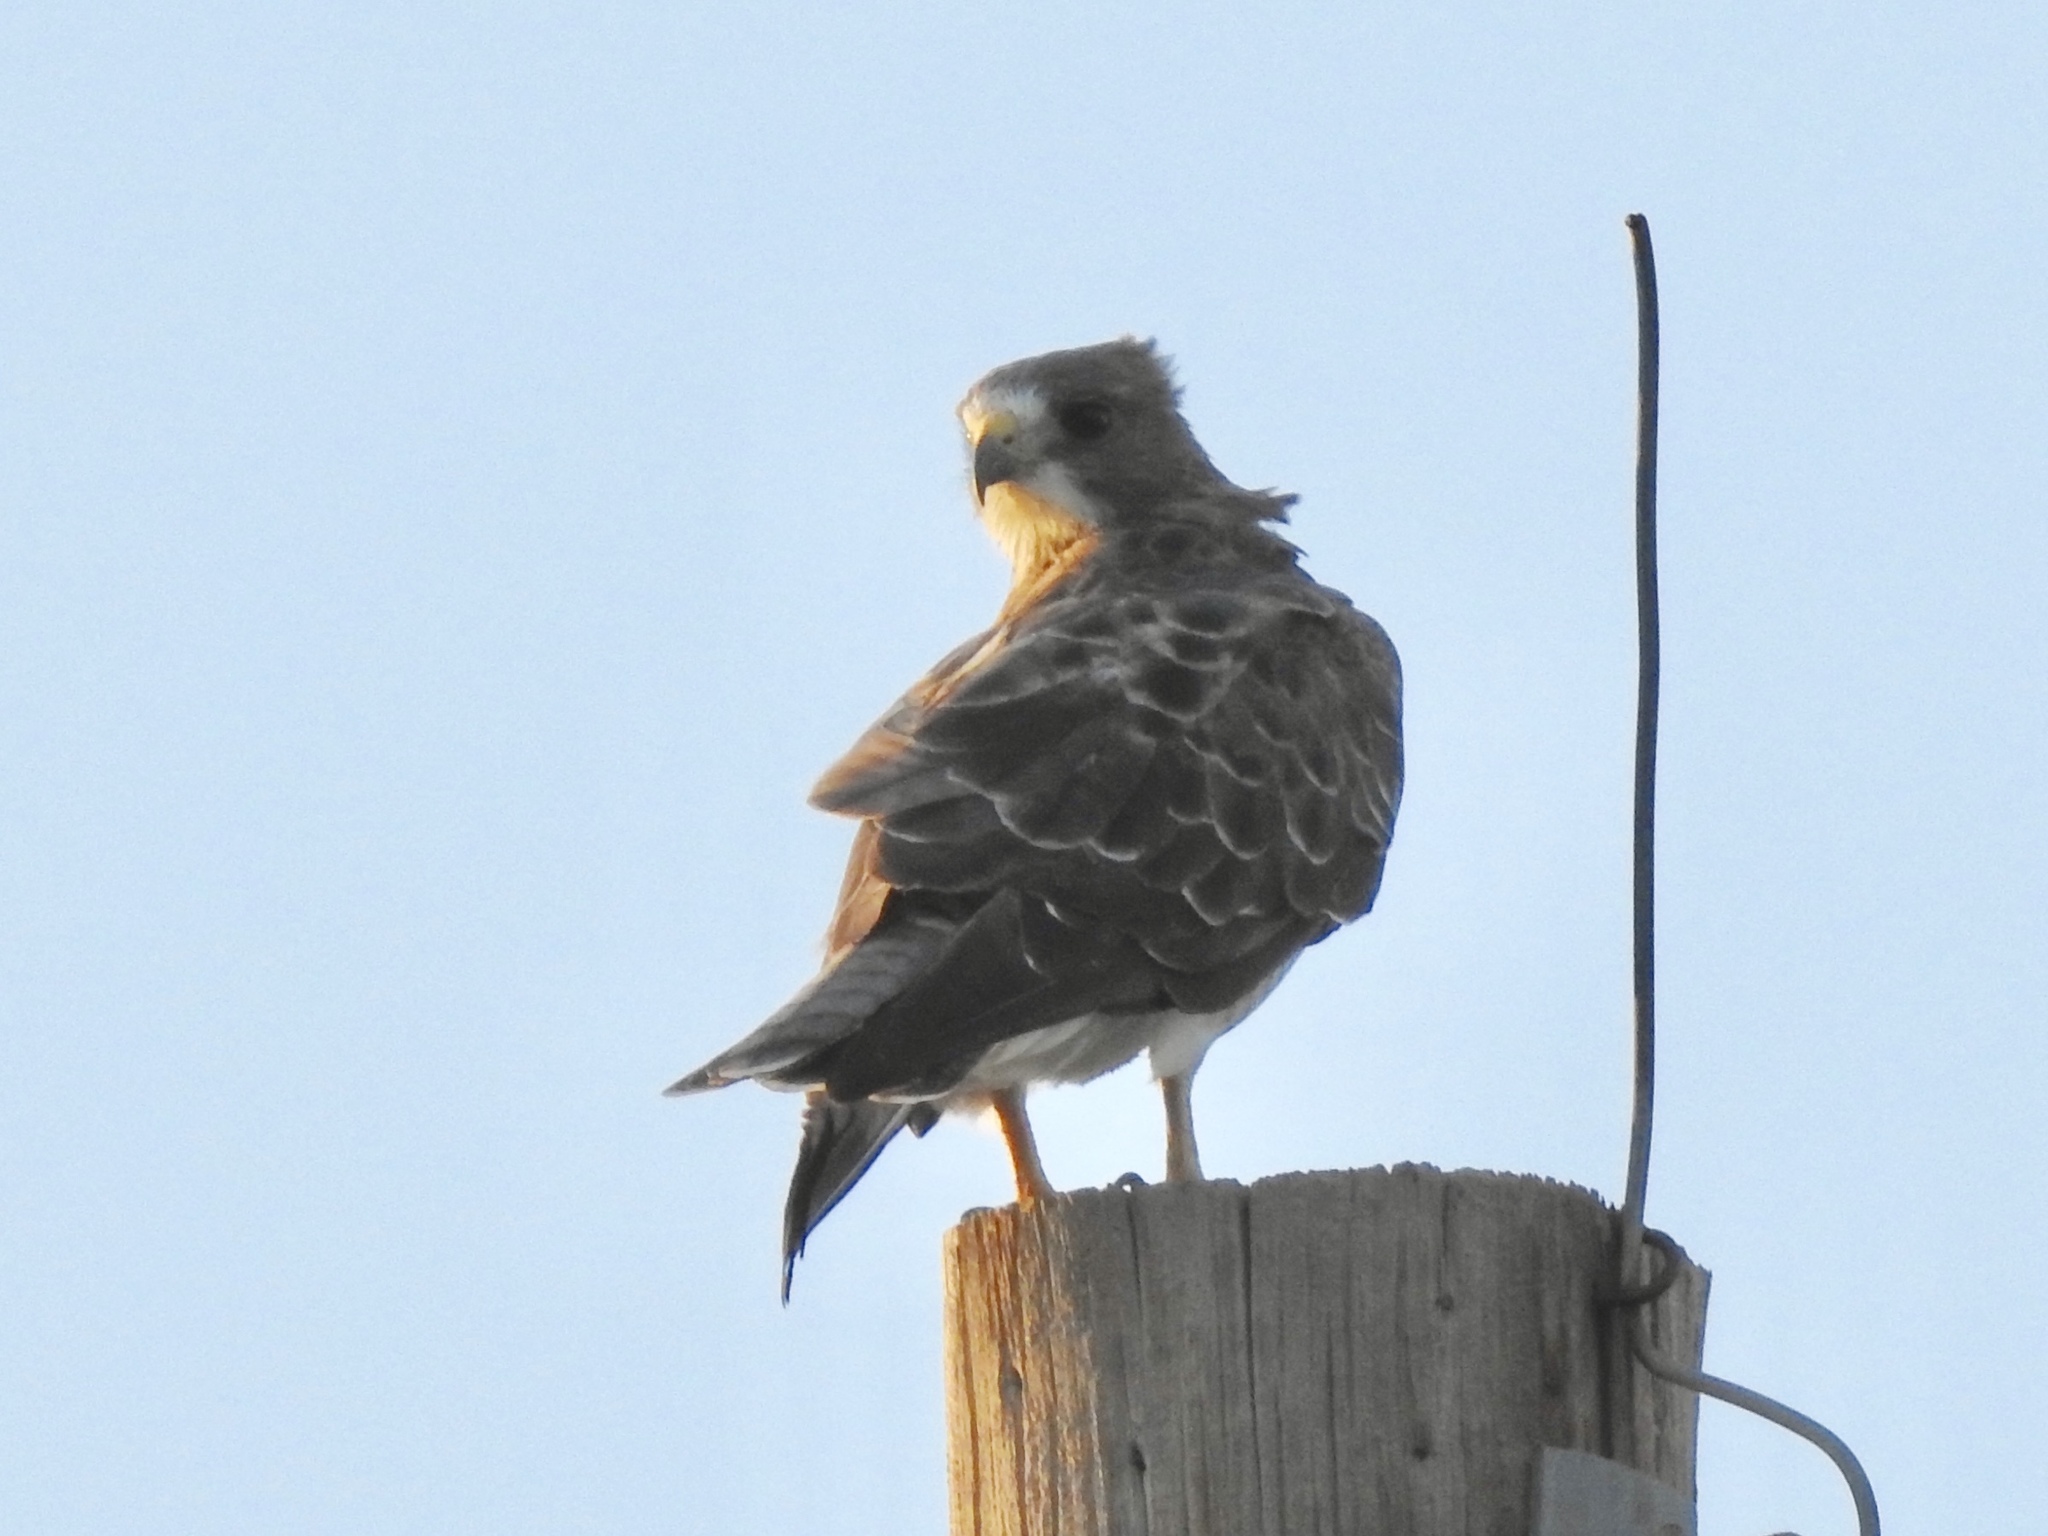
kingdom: Animalia
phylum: Chordata
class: Aves
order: Accipitriformes
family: Accipitridae
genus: Buteo
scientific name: Buteo swainsoni
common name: Swainson's hawk
